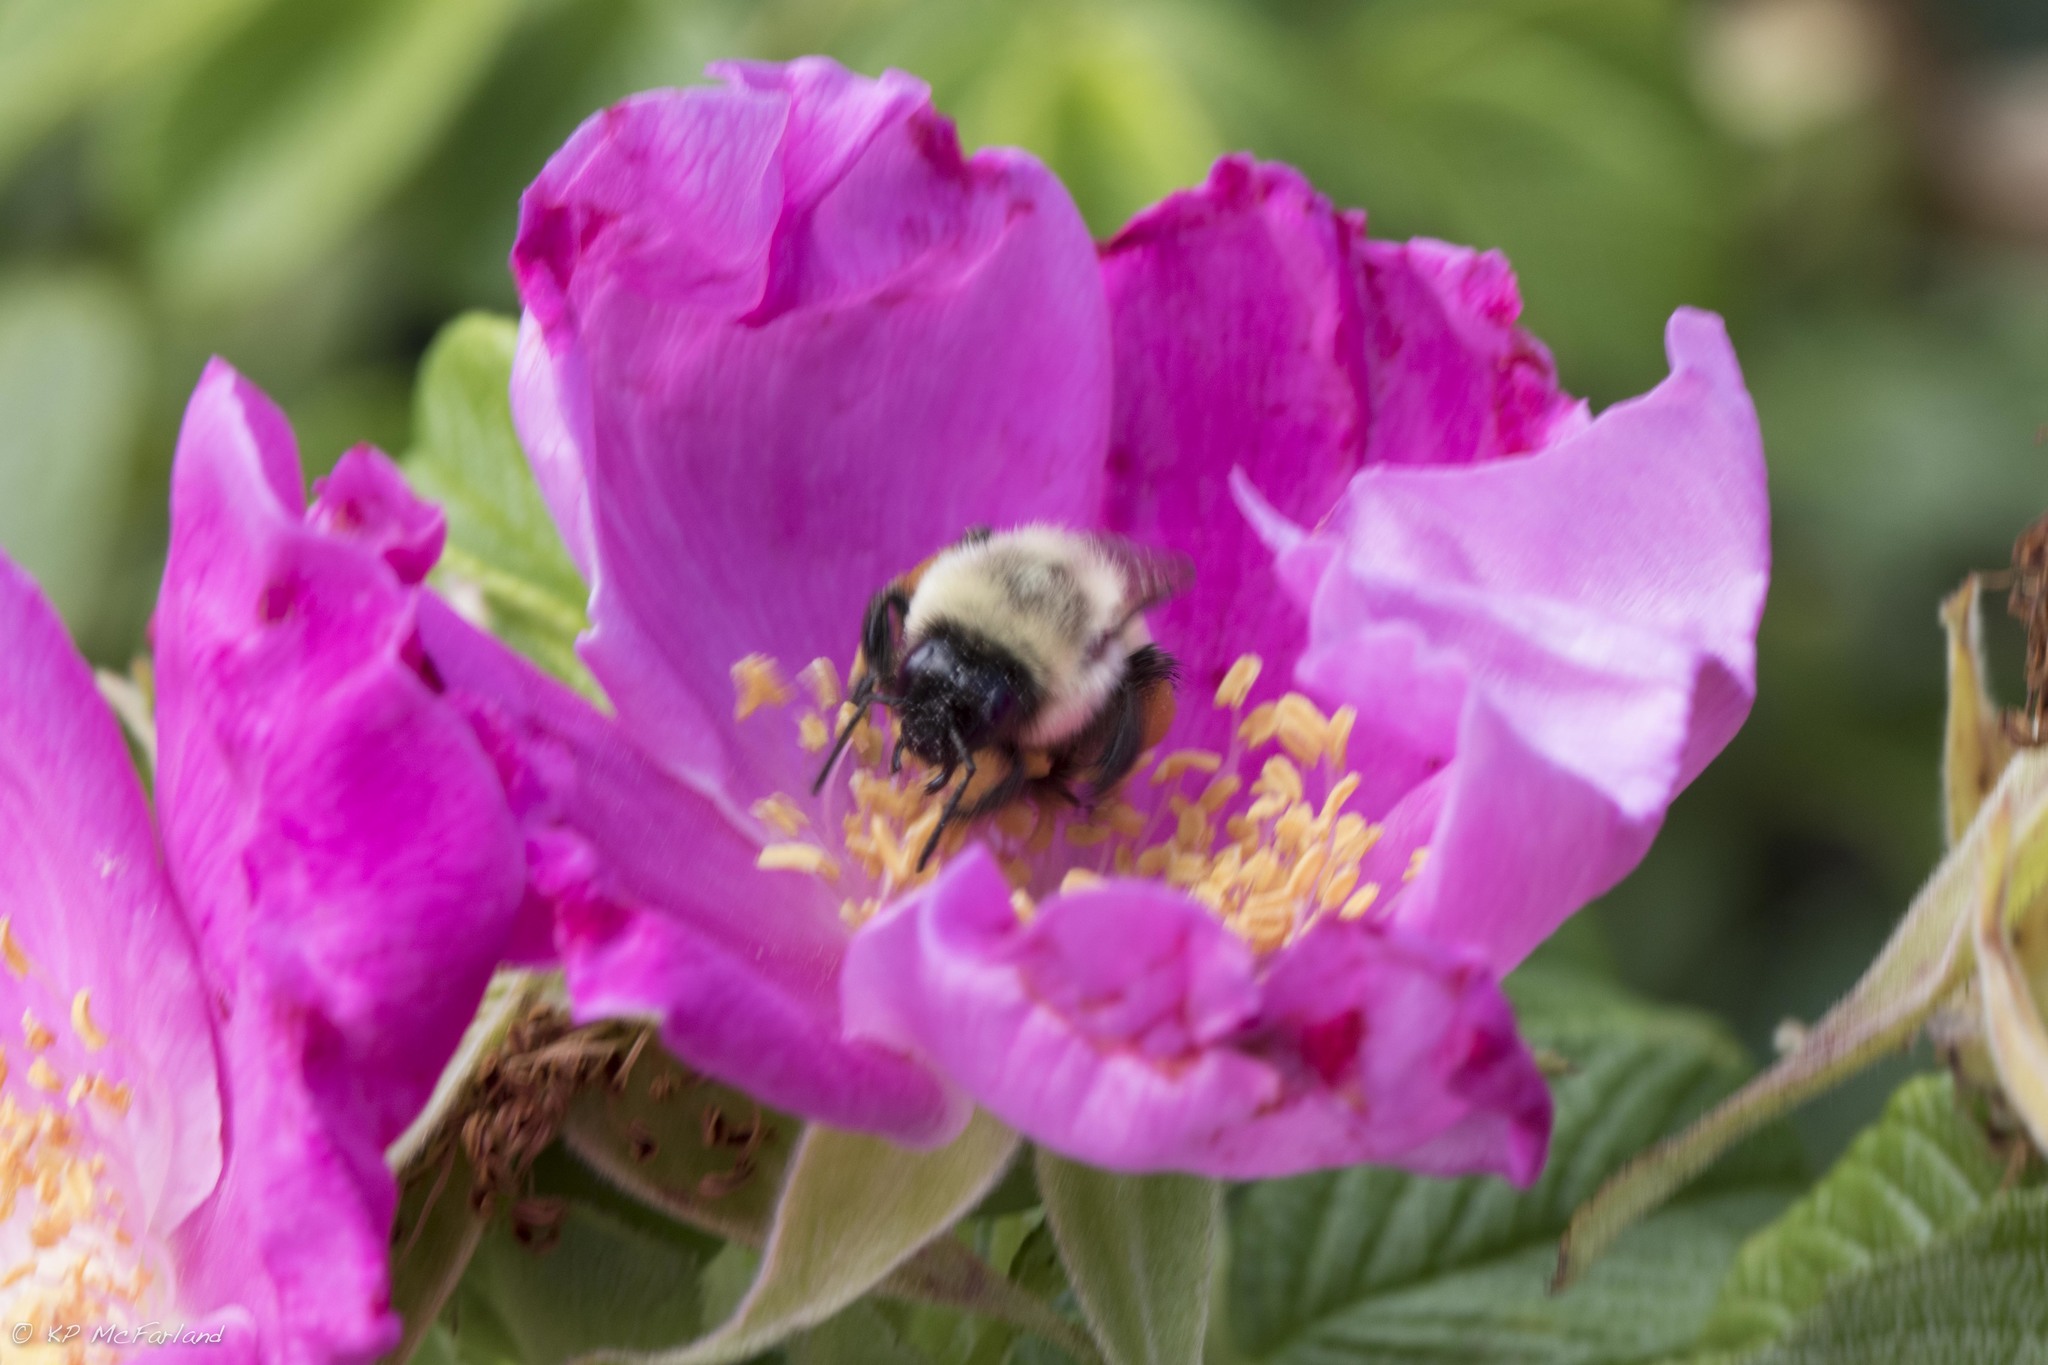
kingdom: Animalia
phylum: Arthropoda
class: Insecta
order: Hymenoptera
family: Apidae
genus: Bombus
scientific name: Bombus impatiens
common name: Common eastern bumble bee
